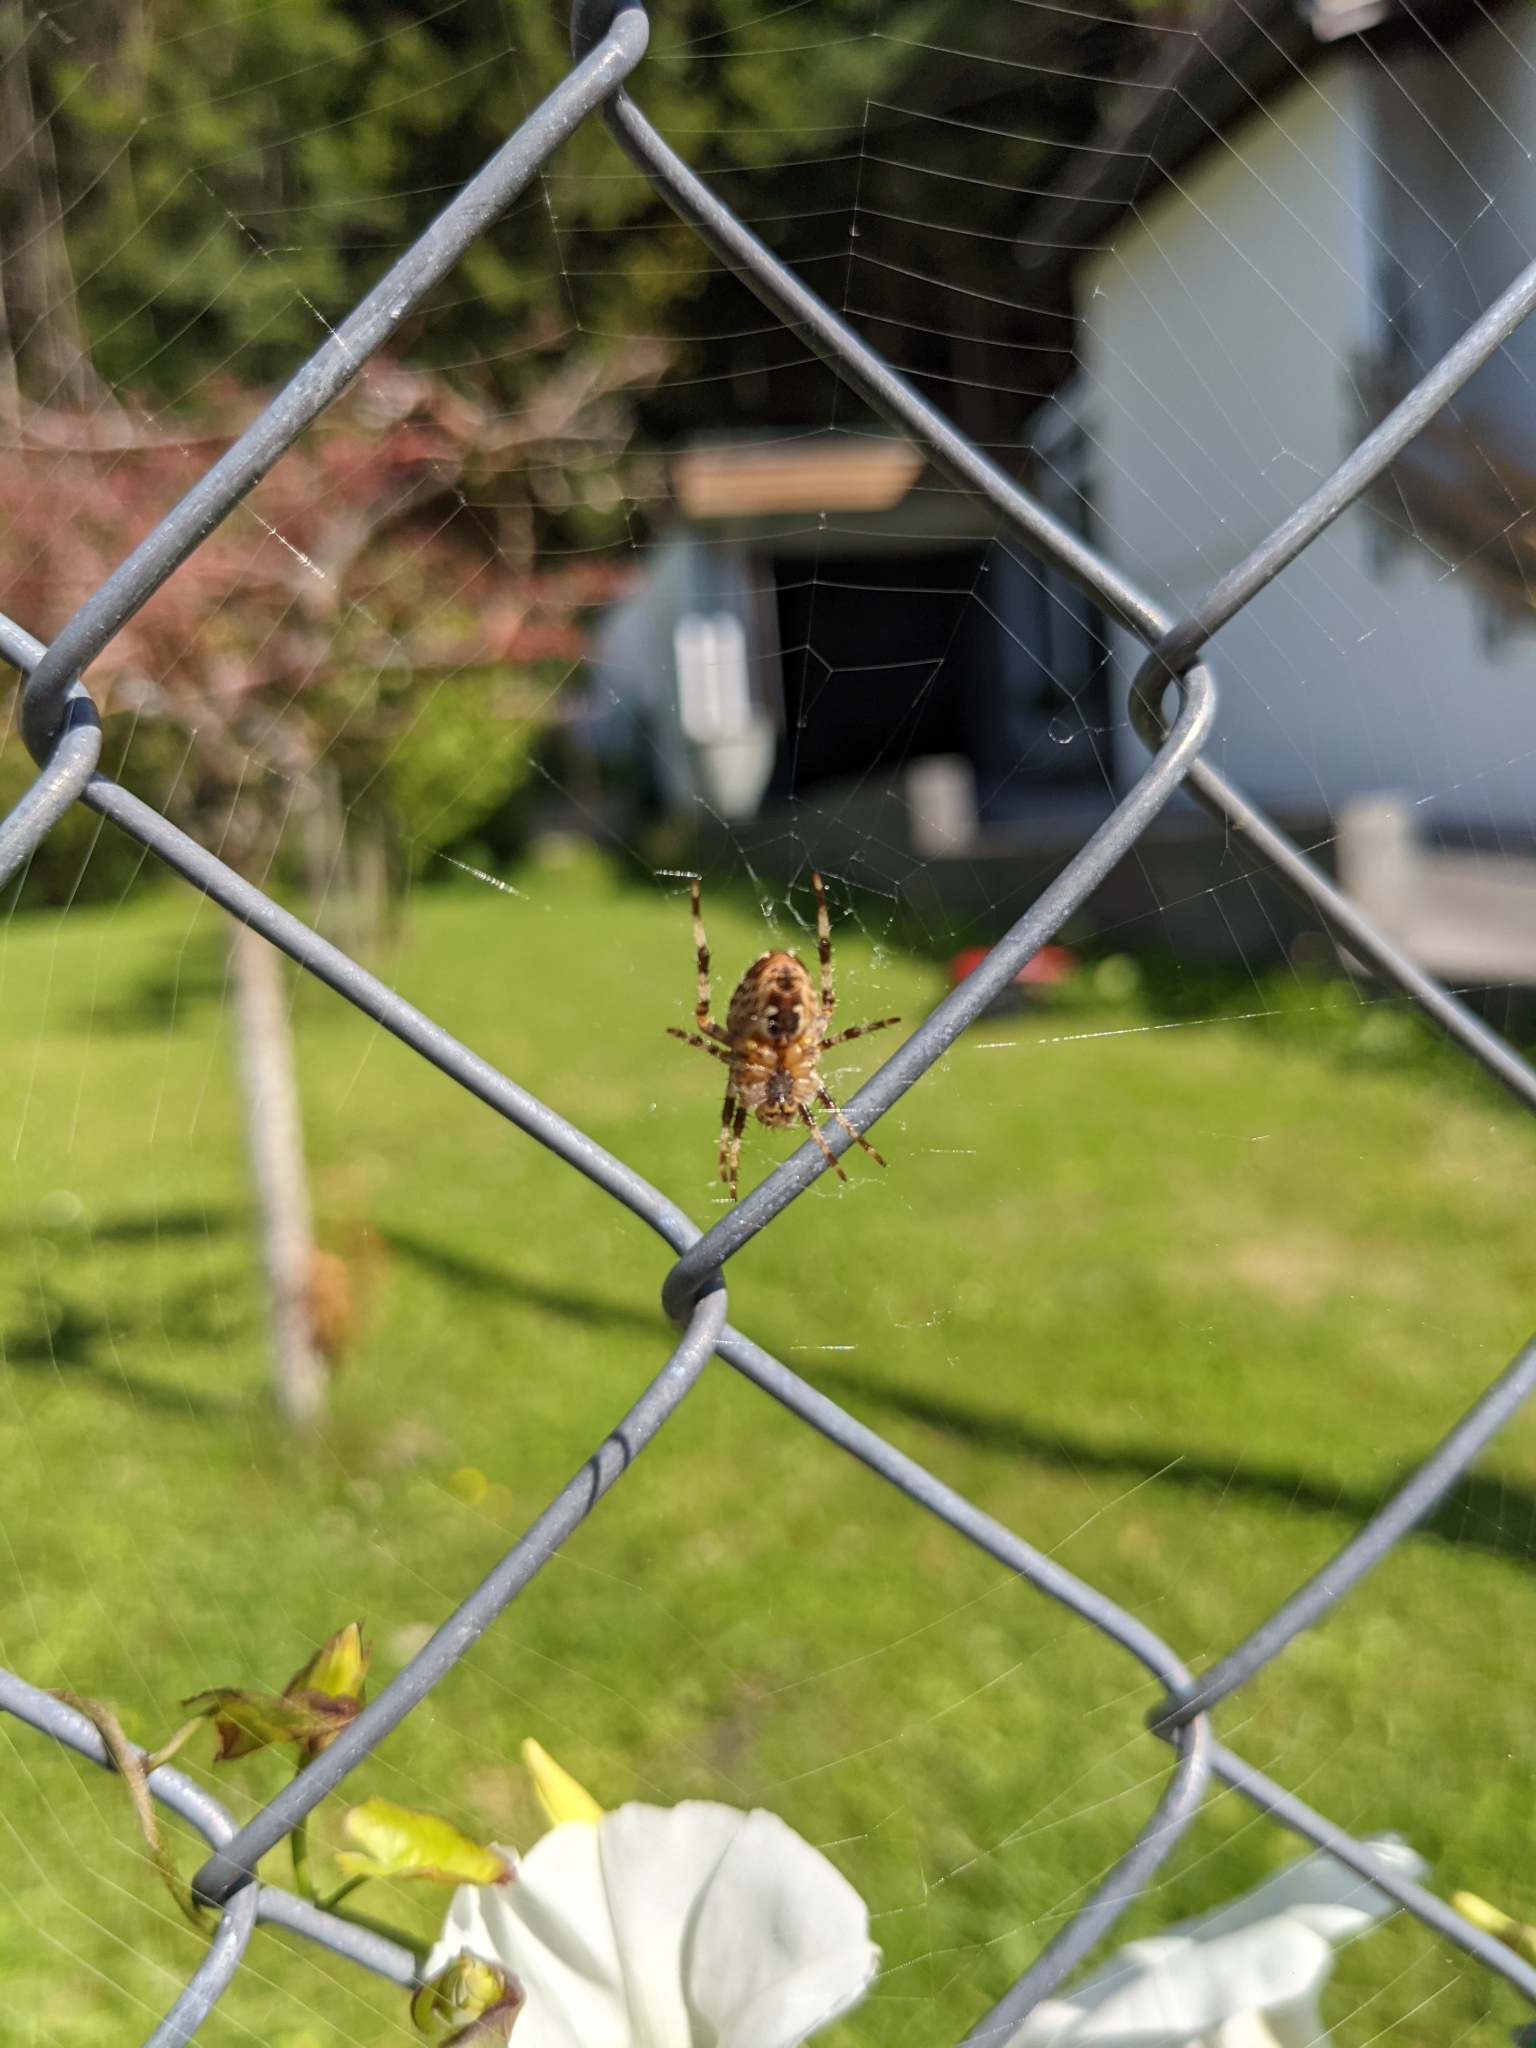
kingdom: Animalia
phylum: Arthropoda
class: Arachnida
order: Araneae
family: Araneidae
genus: Araneus
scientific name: Araneus diadematus
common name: Cross orbweaver
